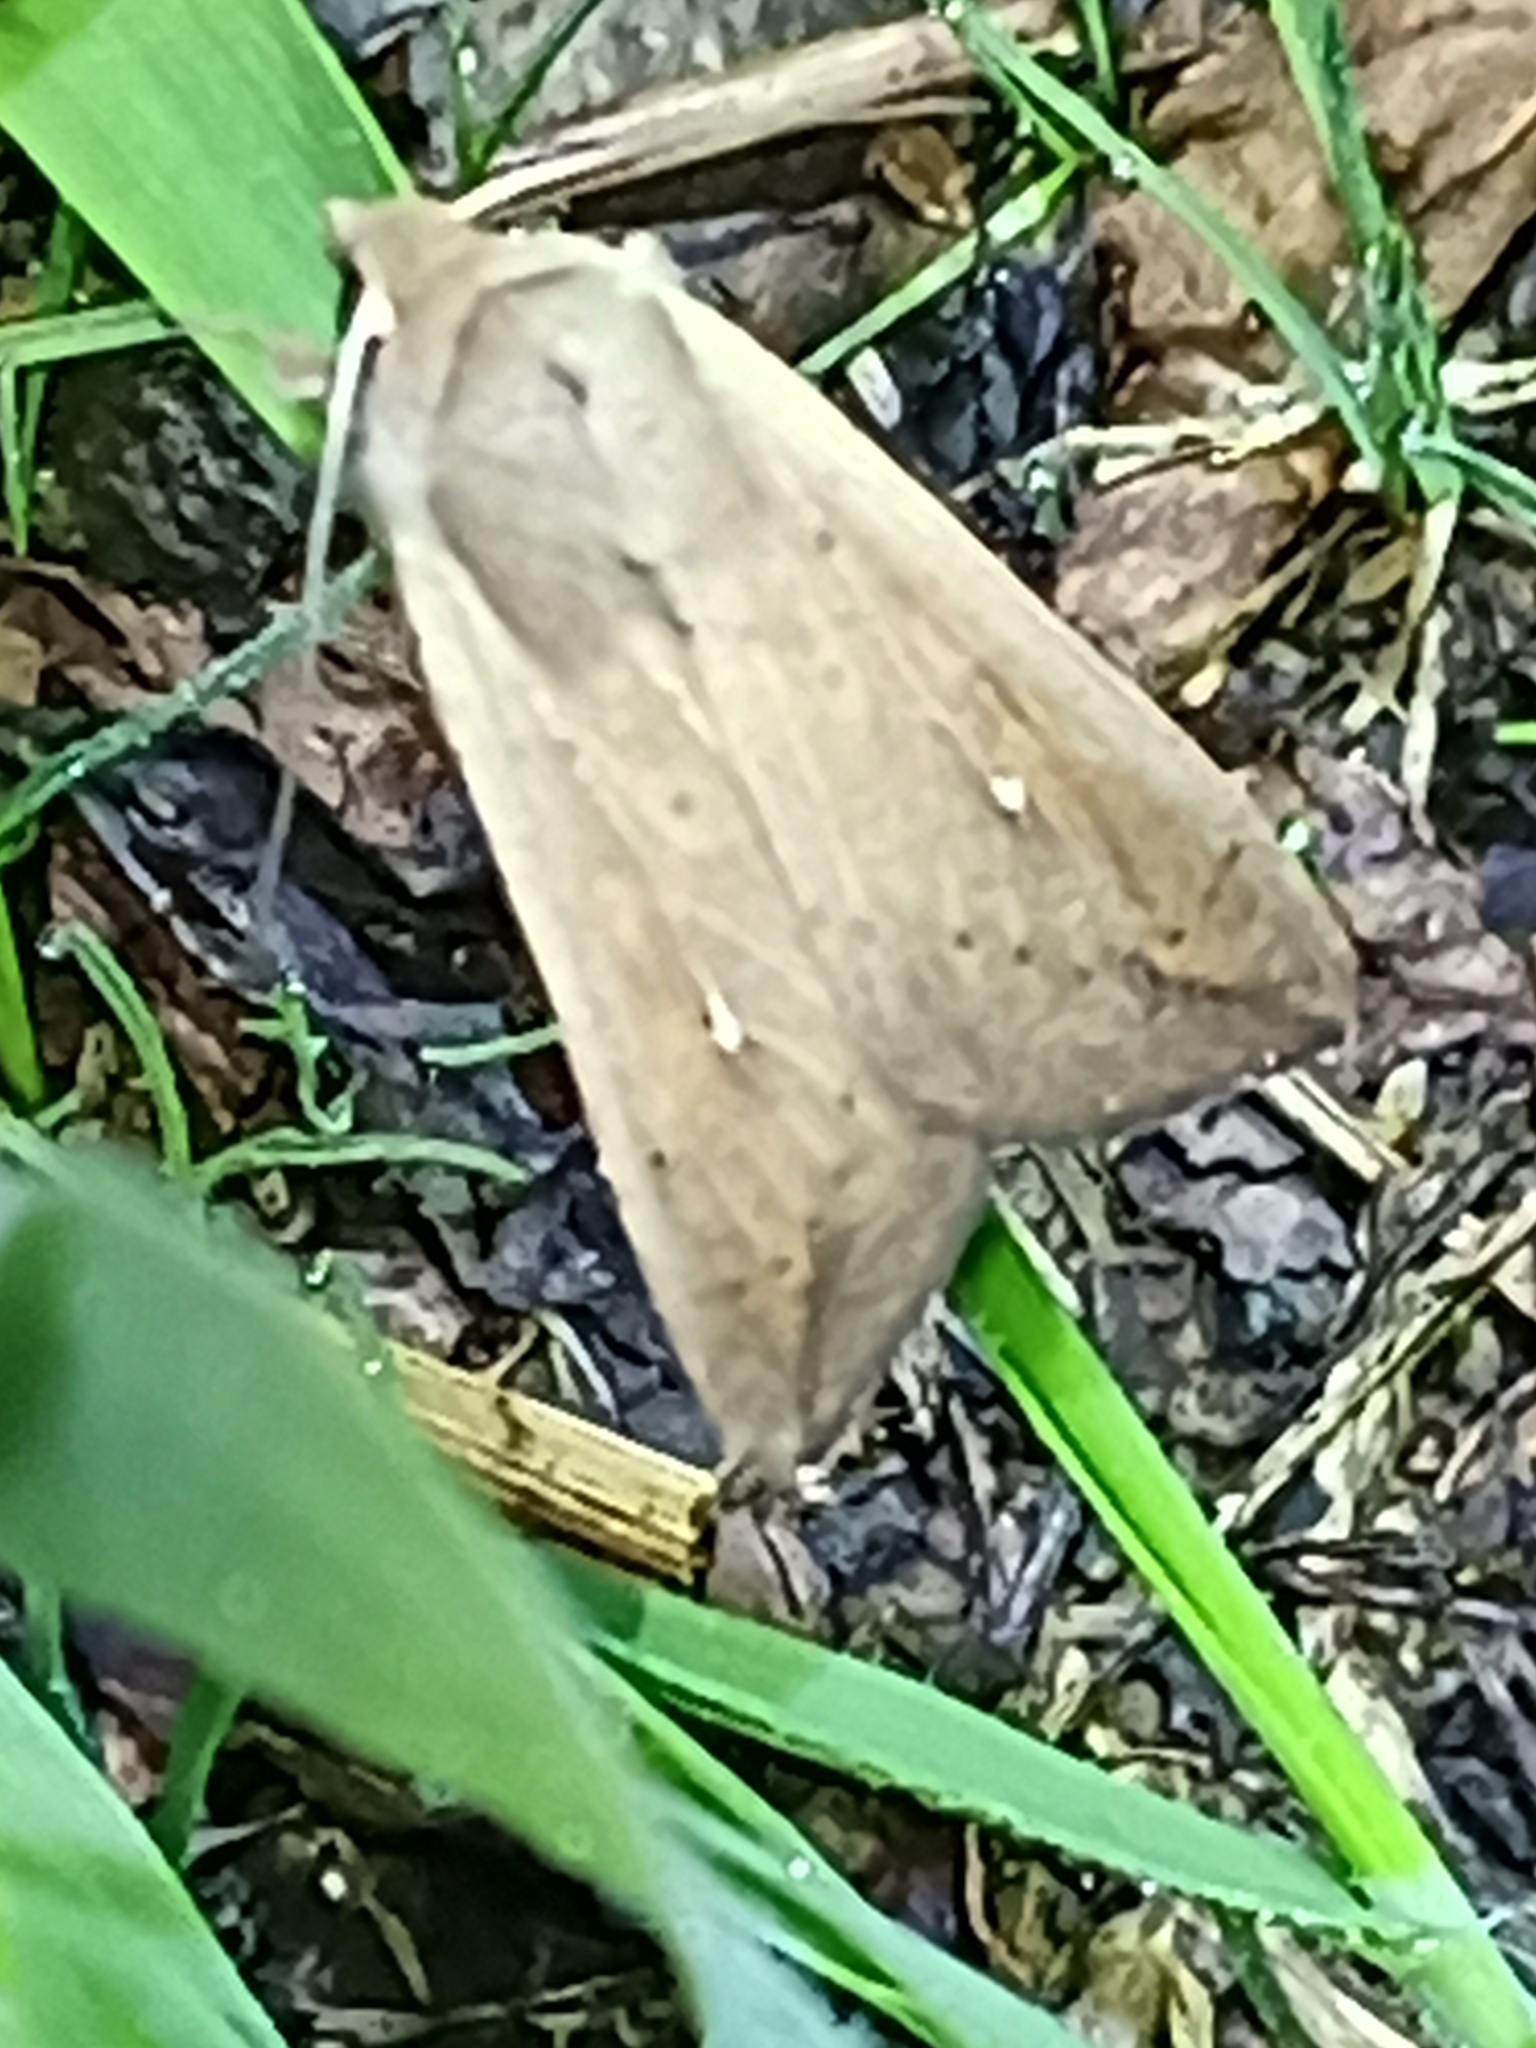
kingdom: Animalia
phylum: Arthropoda
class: Insecta
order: Lepidoptera
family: Noctuidae
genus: Mythimna
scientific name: Mythimna unipuncta
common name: White-speck
